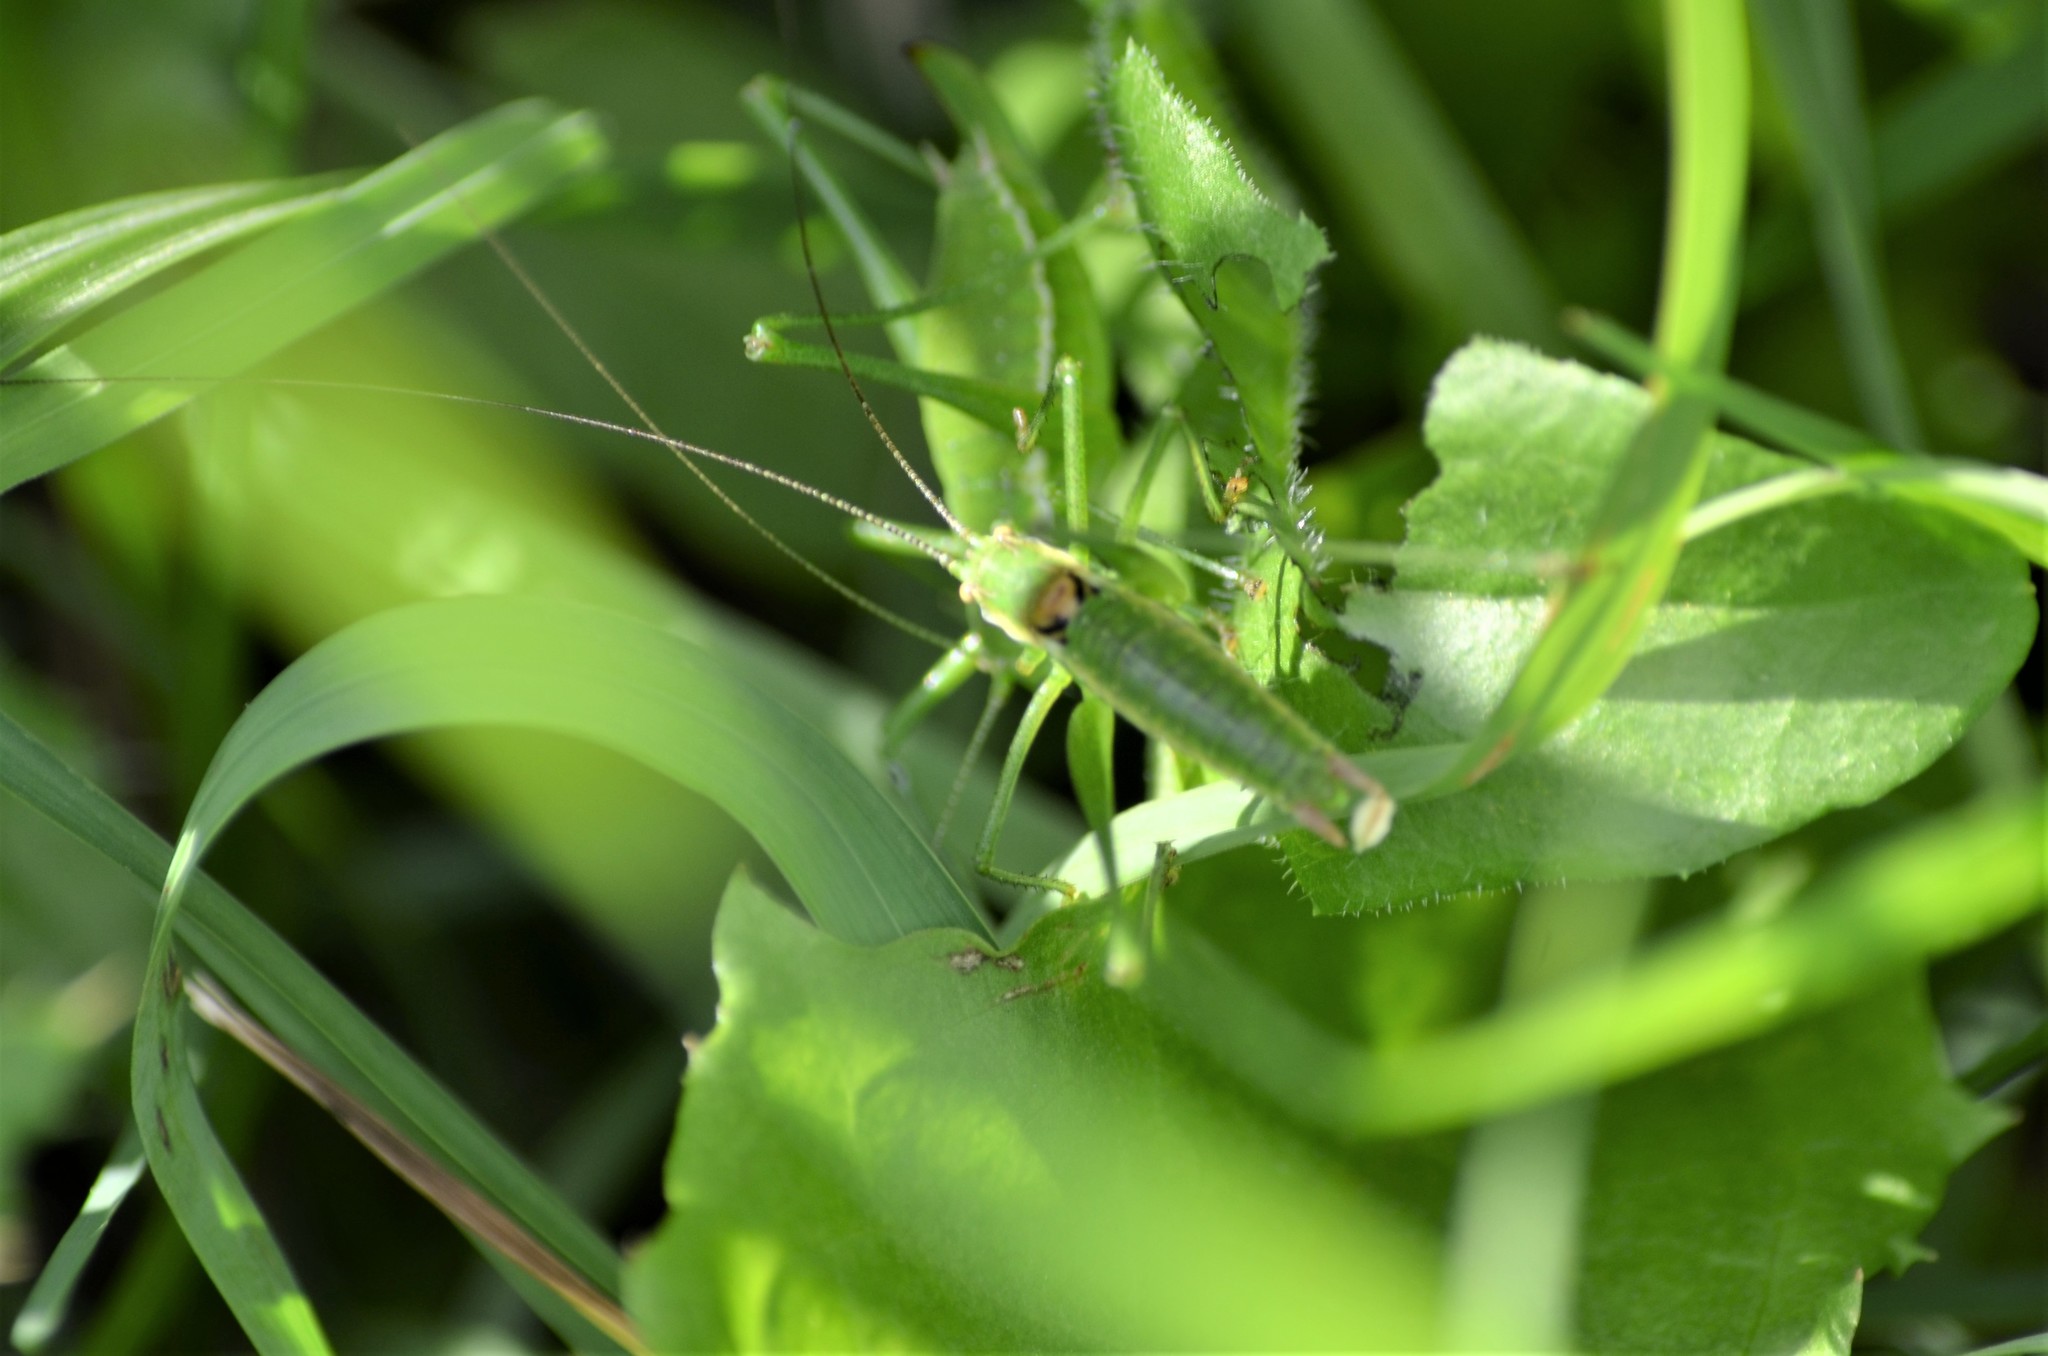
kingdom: Animalia
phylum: Arthropoda
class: Insecta
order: Orthoptera
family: Tettigoniidae
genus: Leptophyes
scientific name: Leptophyes boscii
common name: Balkan speckled bush-cricket
